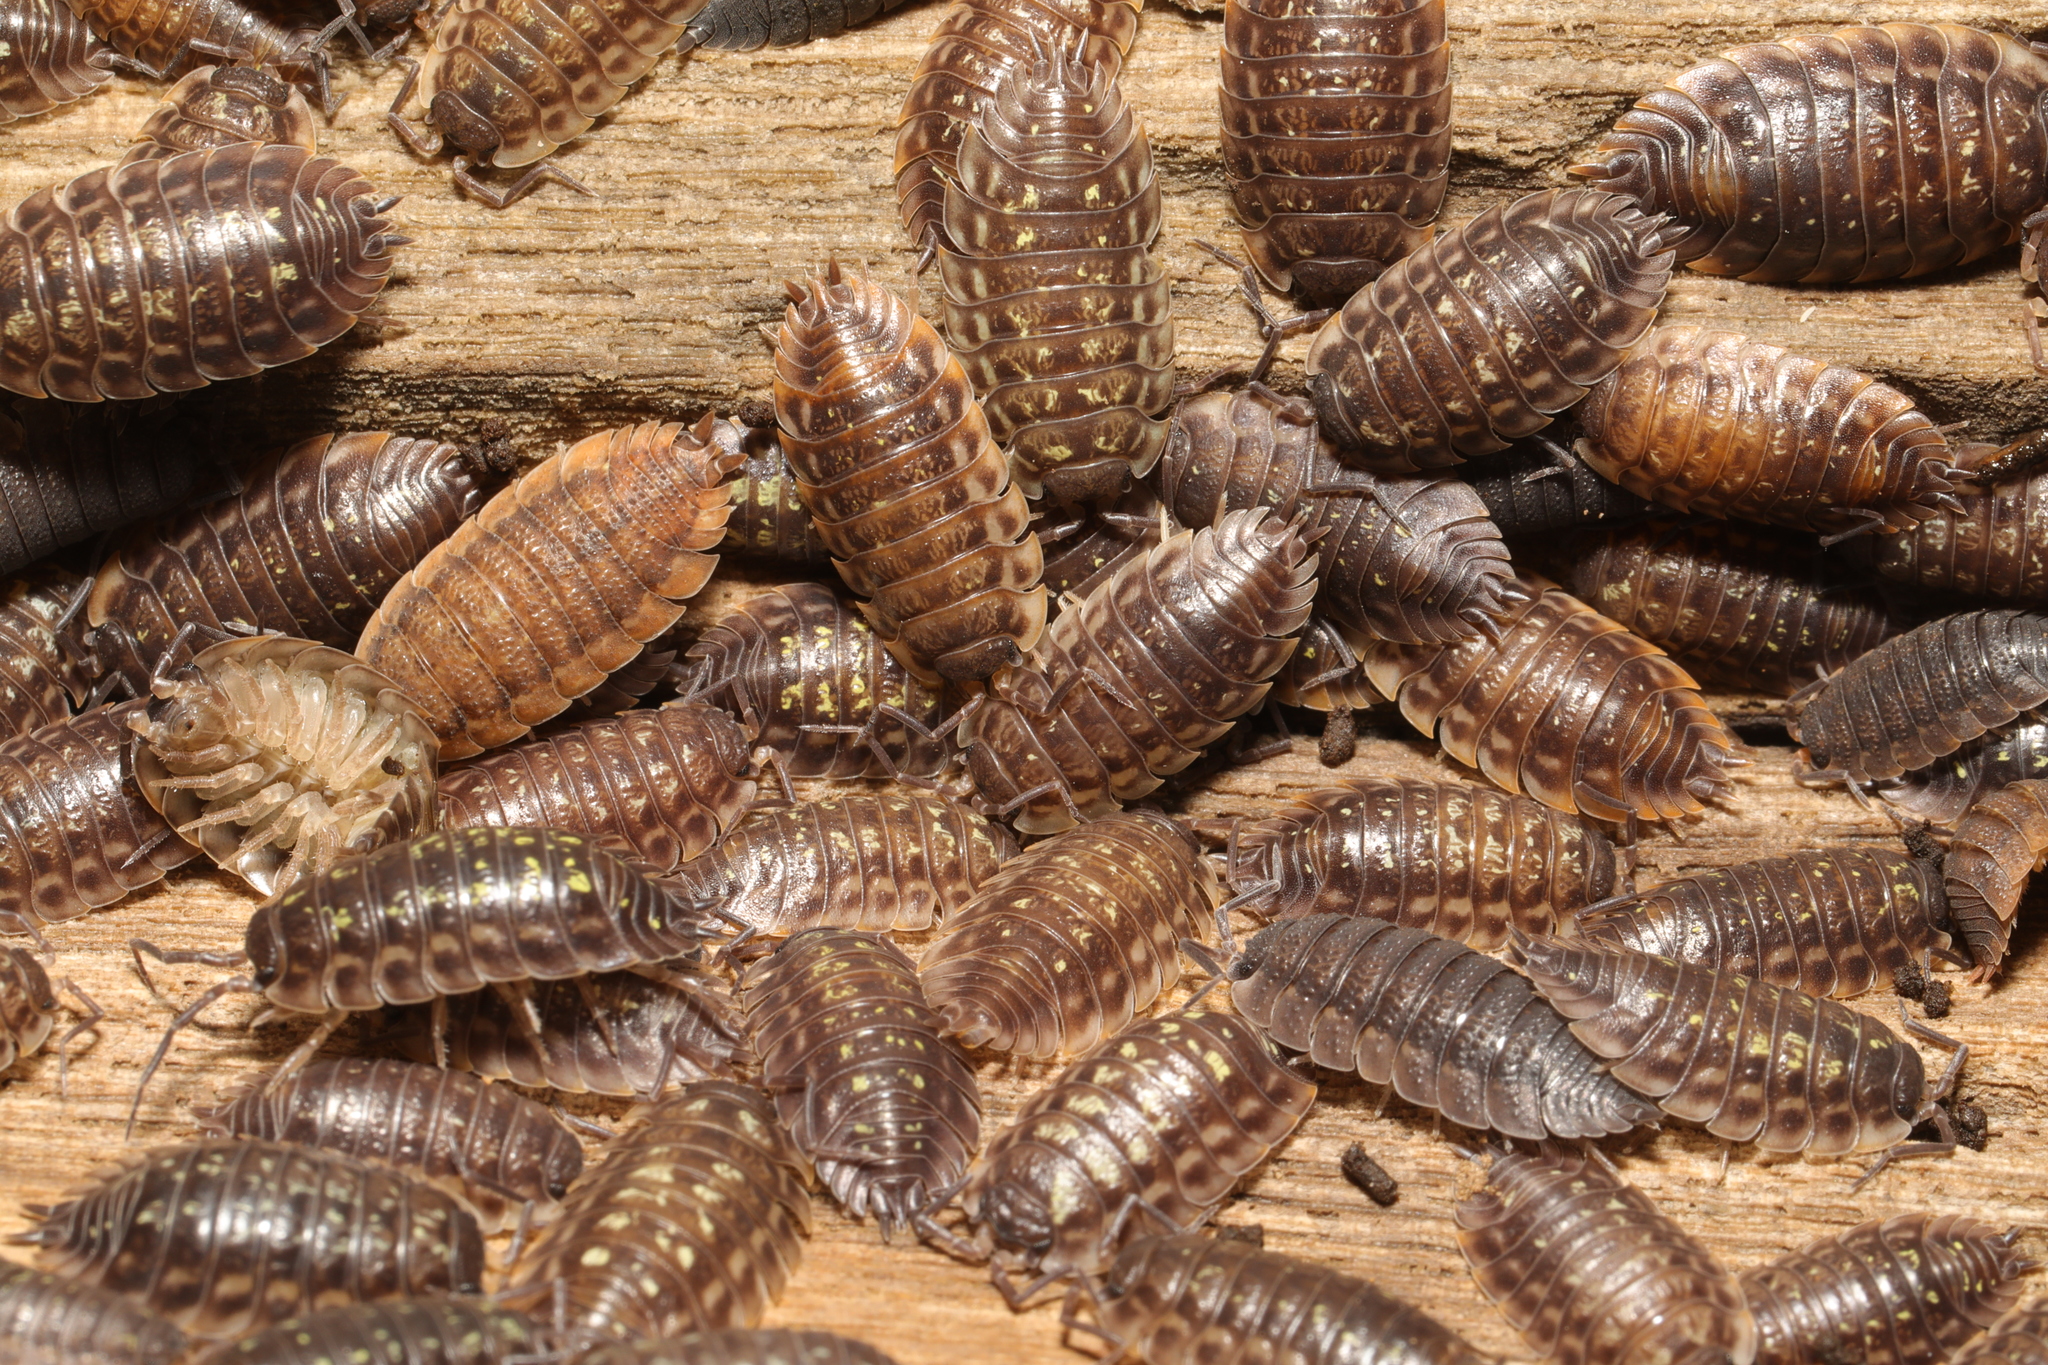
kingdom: Animalia
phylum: Arthropoda
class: Malacostraca
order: Isopoda
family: Oniscidae
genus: Oniscus
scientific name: Oniscus asellus
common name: Common shiny woodlouse
